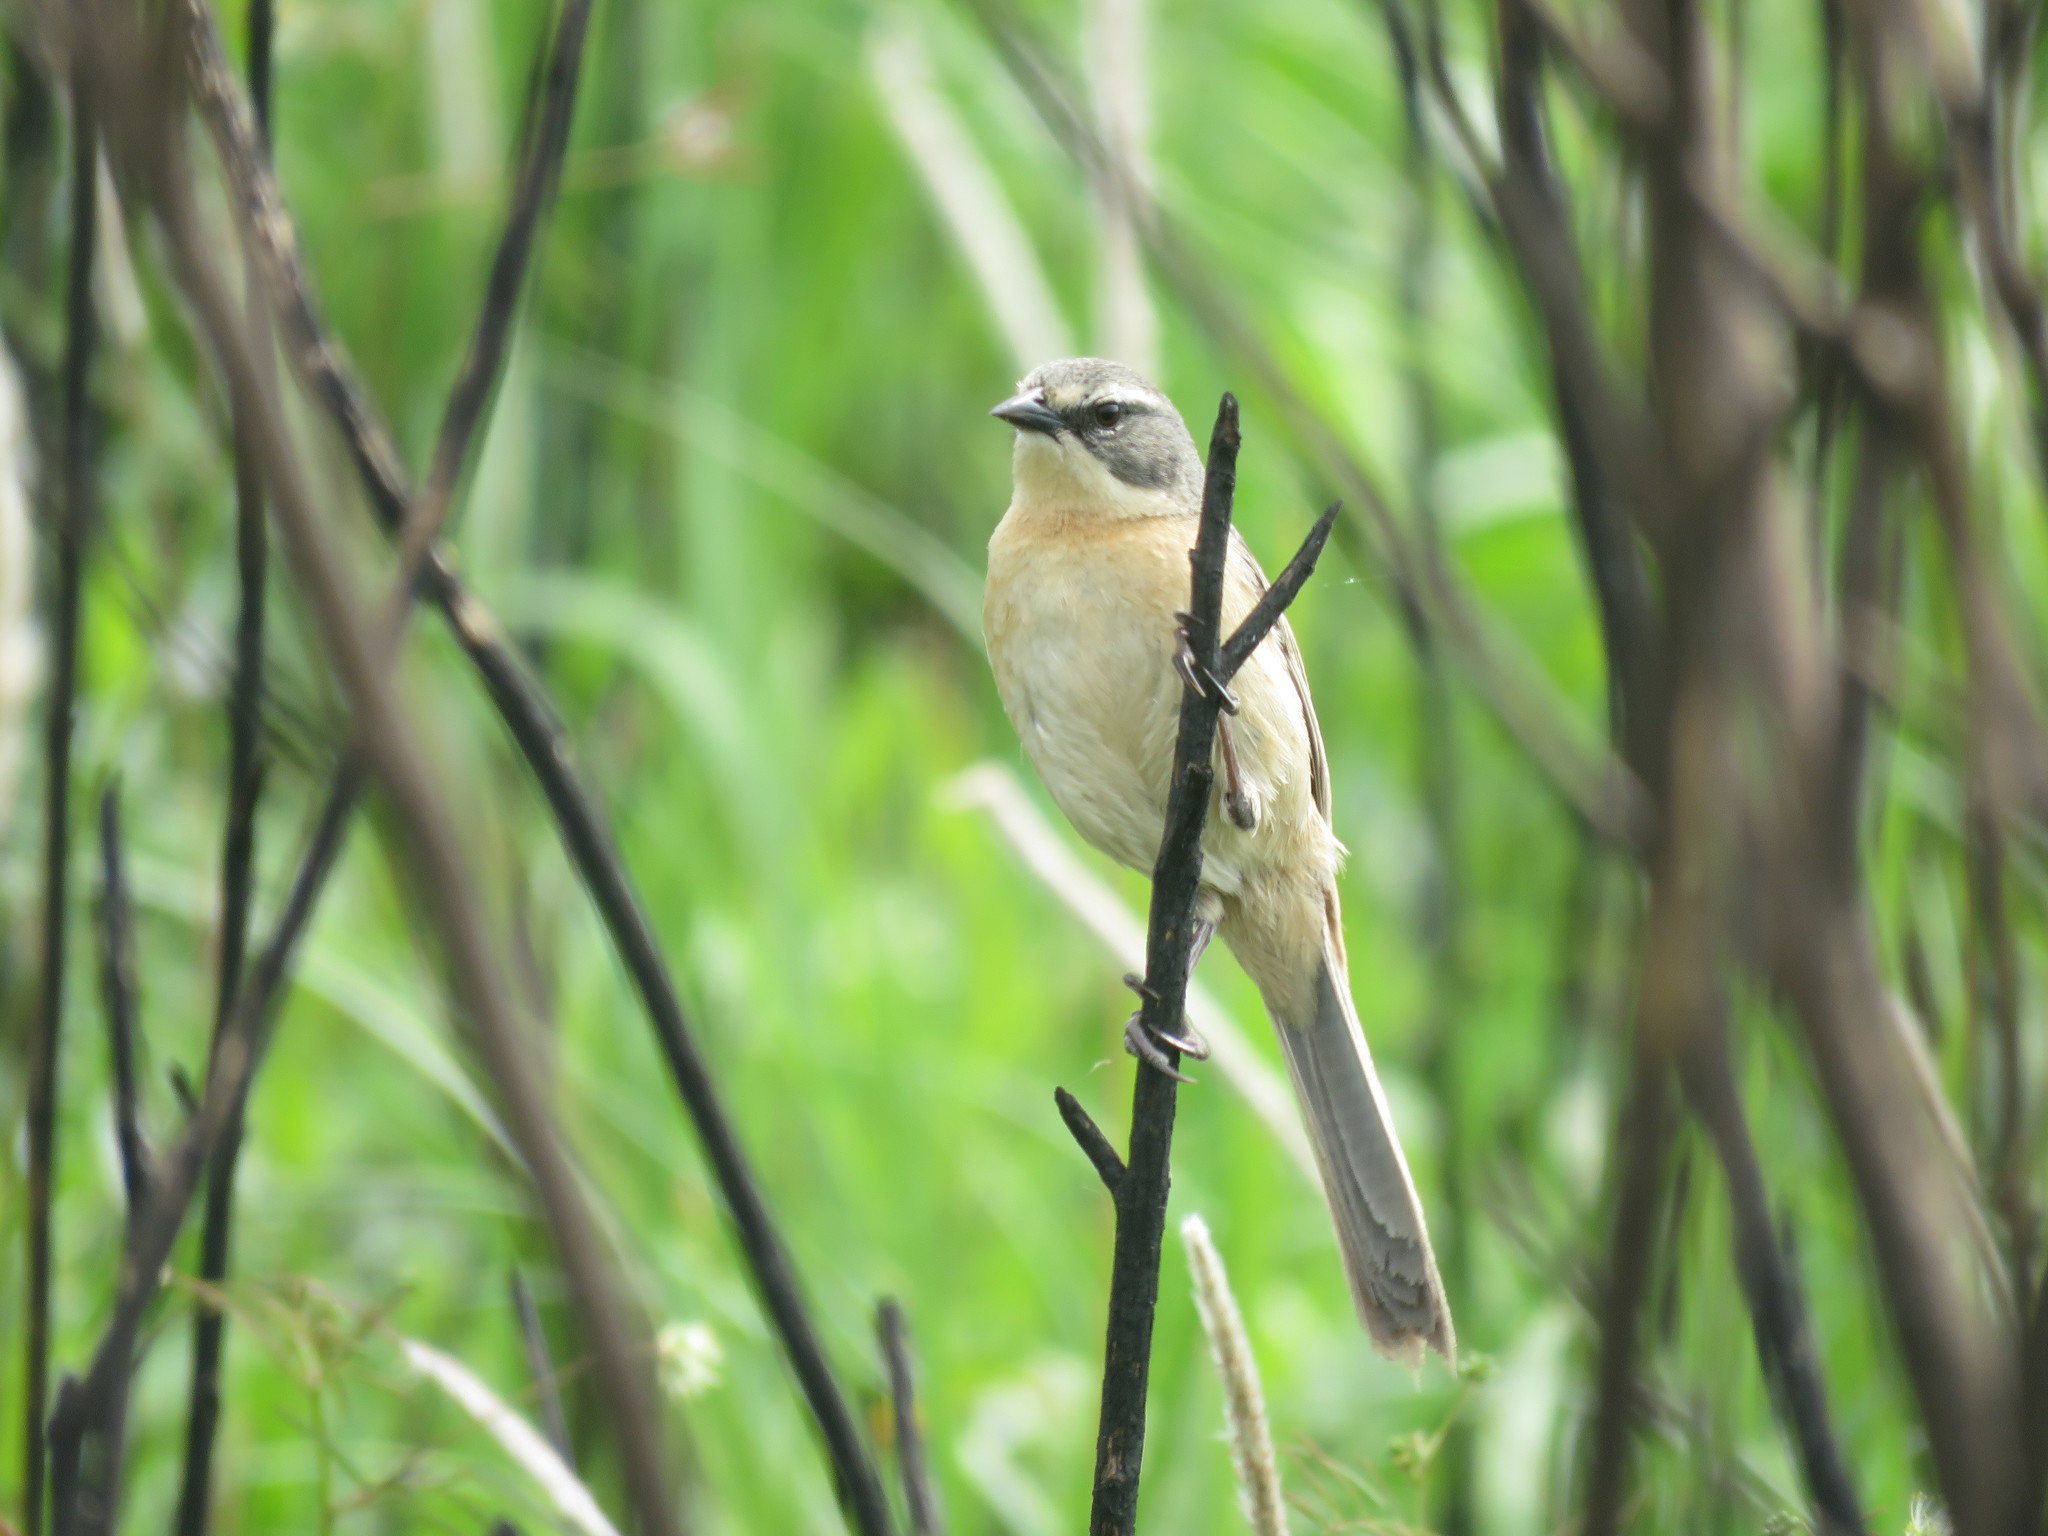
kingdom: Animalia
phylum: Chordata
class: Aves
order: Passeriformes
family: Thraupidae
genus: Donacospiza
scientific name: Donacospiza albifrons
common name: Long-tailed reed finch
